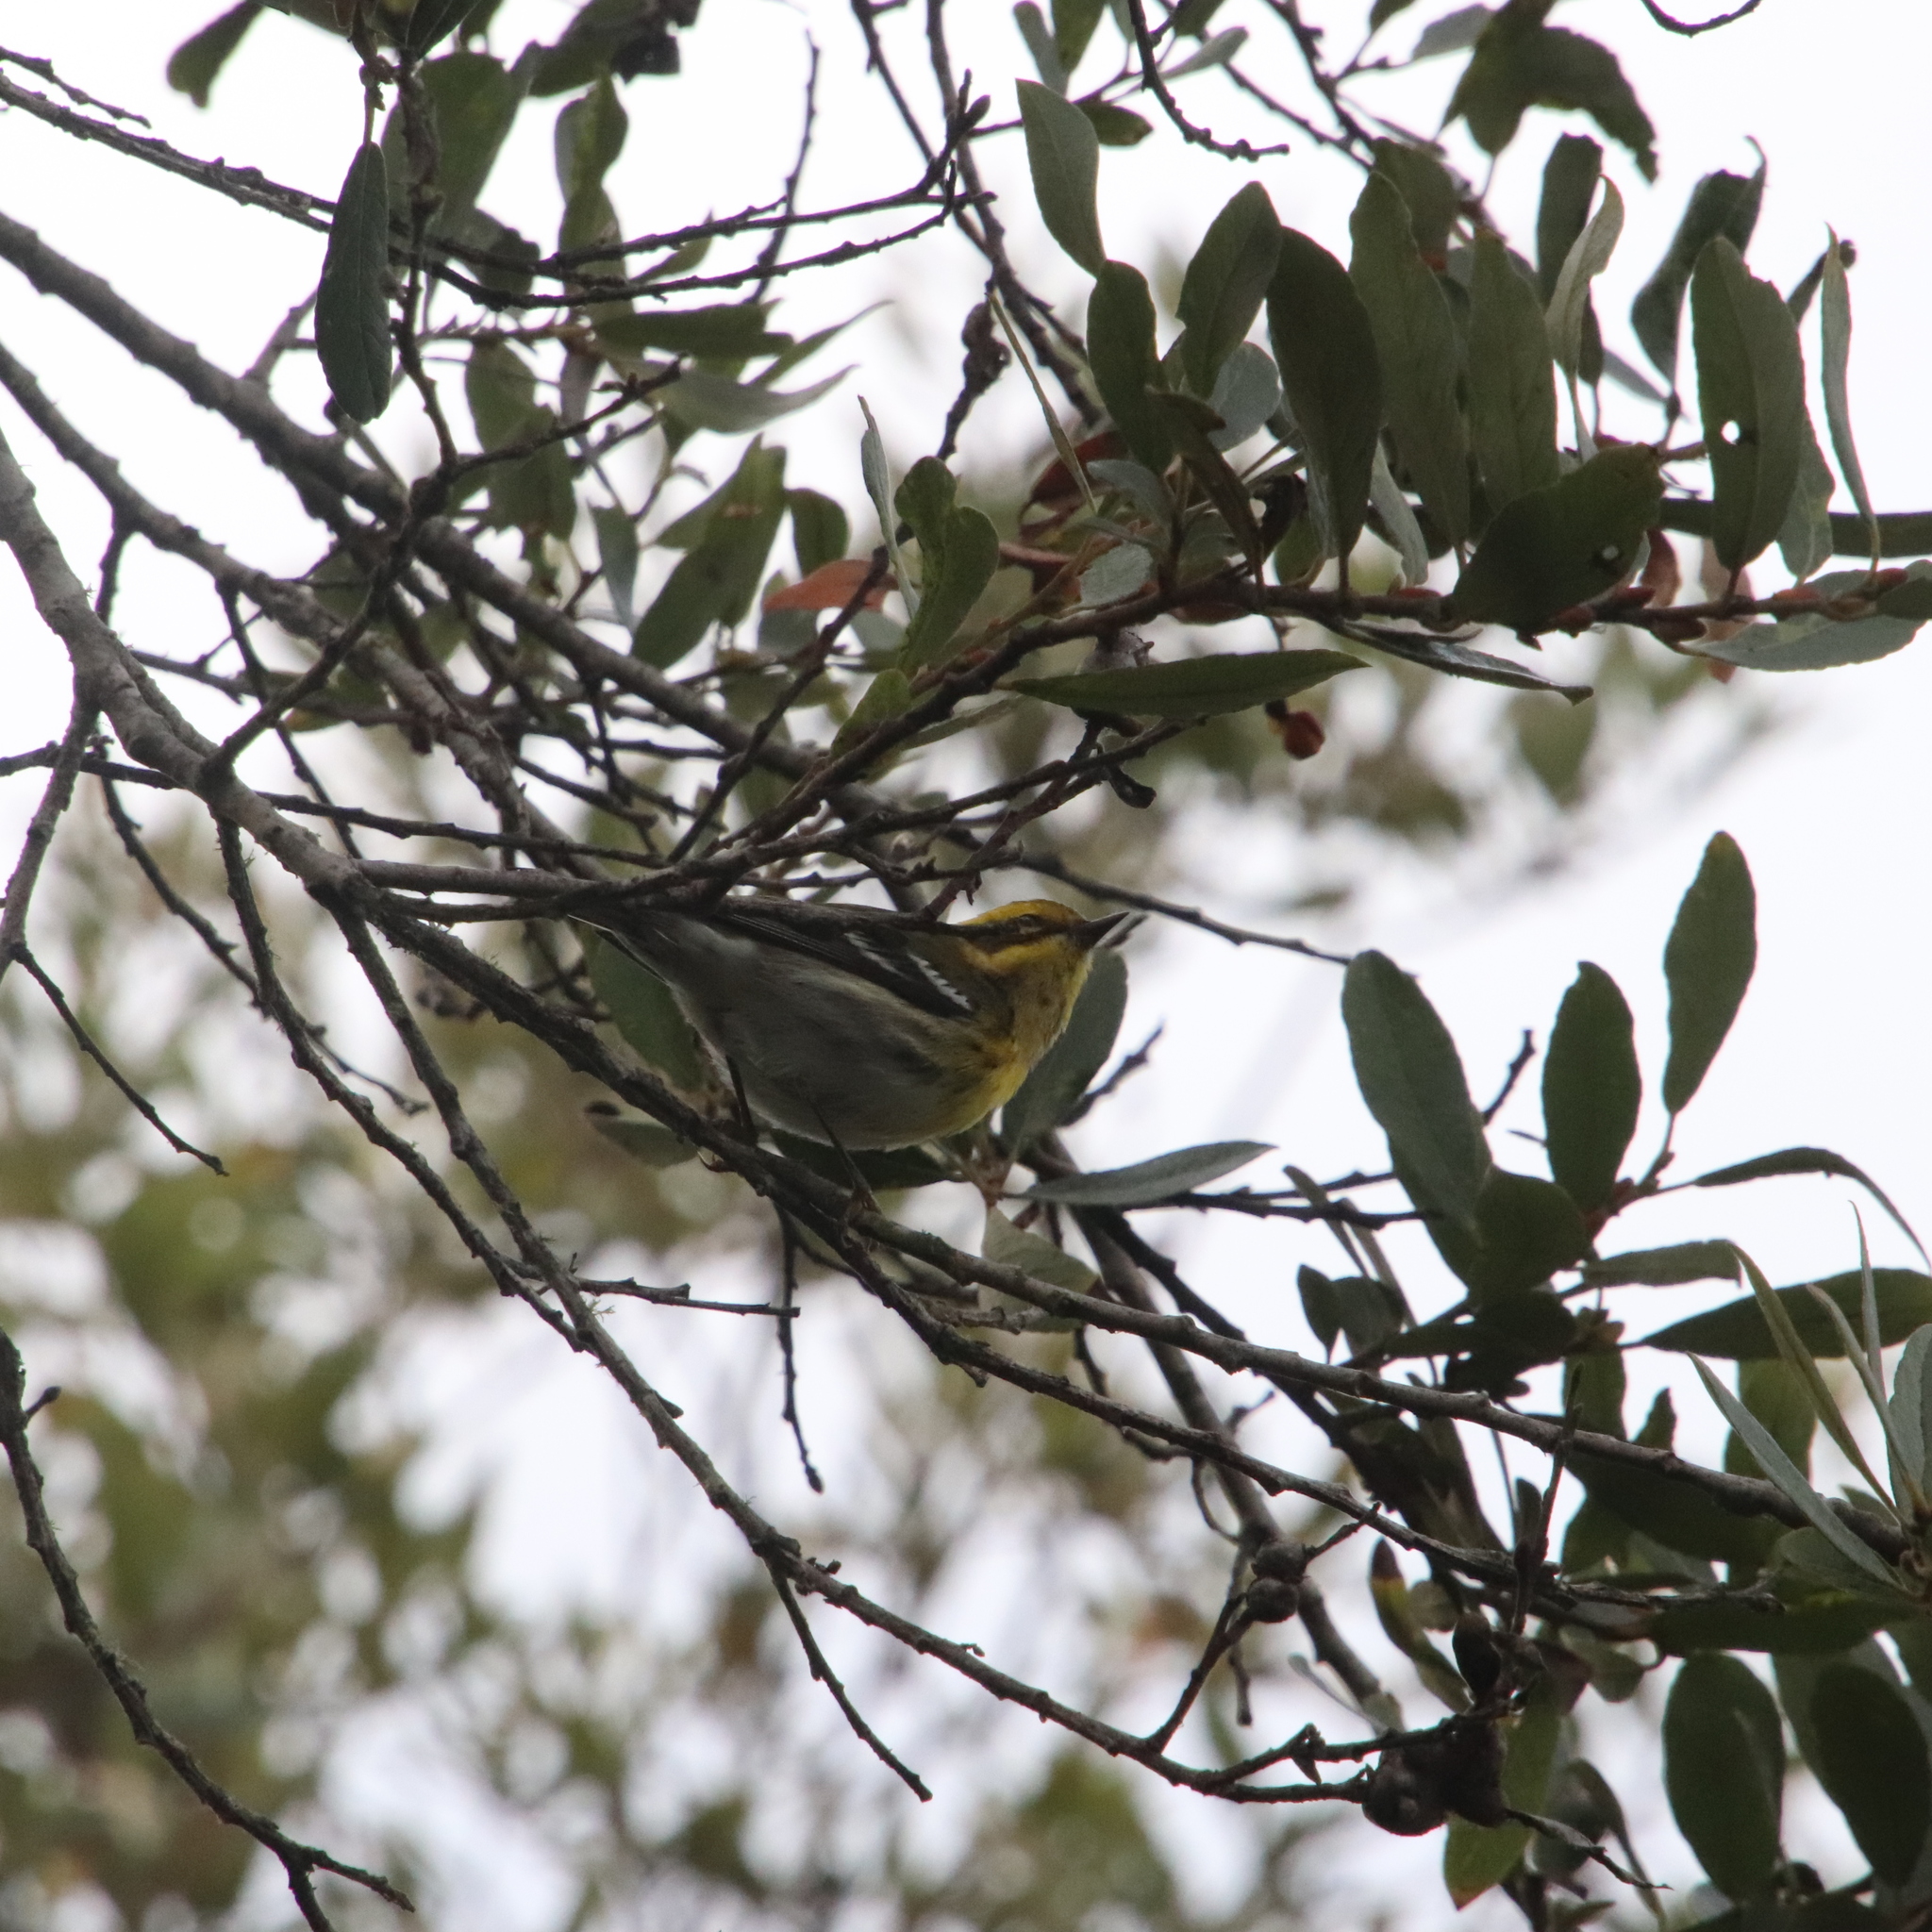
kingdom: Animalia
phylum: Chordata
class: Aves
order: Passeriformes
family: Parulidae
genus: Setophaga
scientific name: Setophaga townsendi
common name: Townsend's warbler
